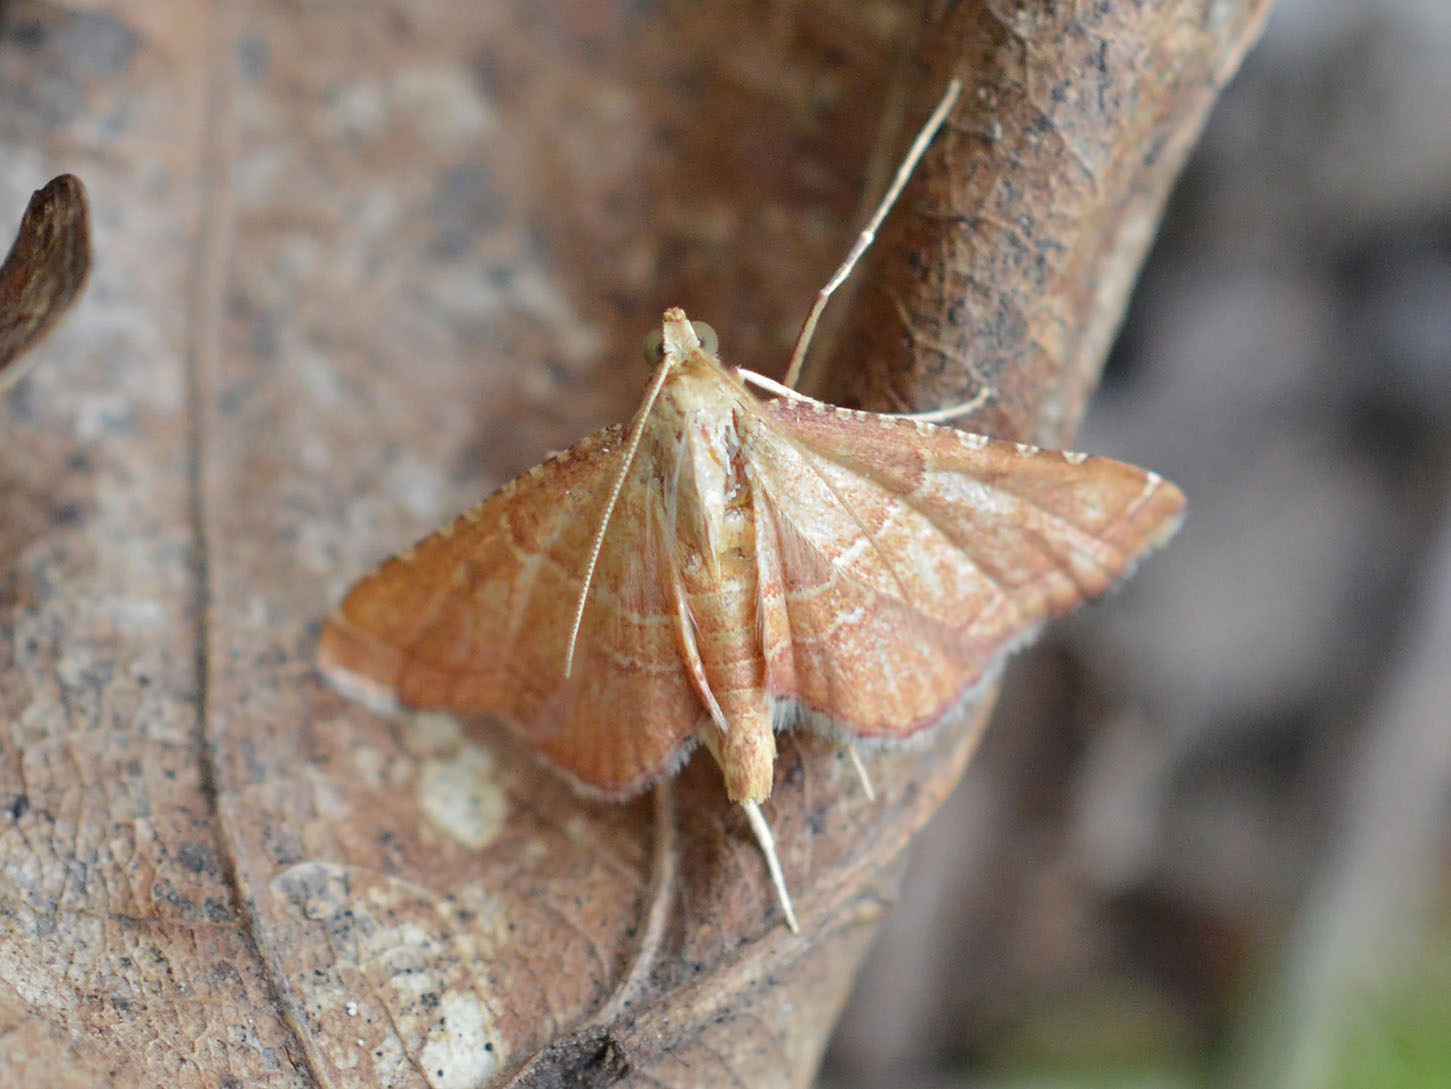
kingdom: Animalia
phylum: Arthropoda
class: Insecta
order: Lepidoptera
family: Pyralidae
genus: Endotricha
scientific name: Endotricha flammealis
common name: Rosy tabby
